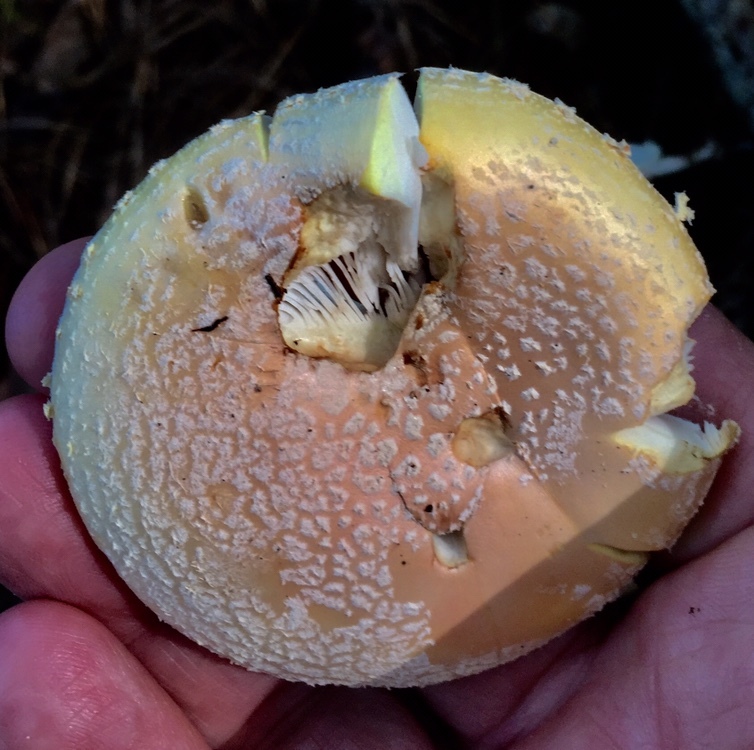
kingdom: Fungi
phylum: Basidiomycota
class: Agaricomycetes
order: Agaricales
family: Amanitaceae
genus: Amanita
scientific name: Amanita persicina
